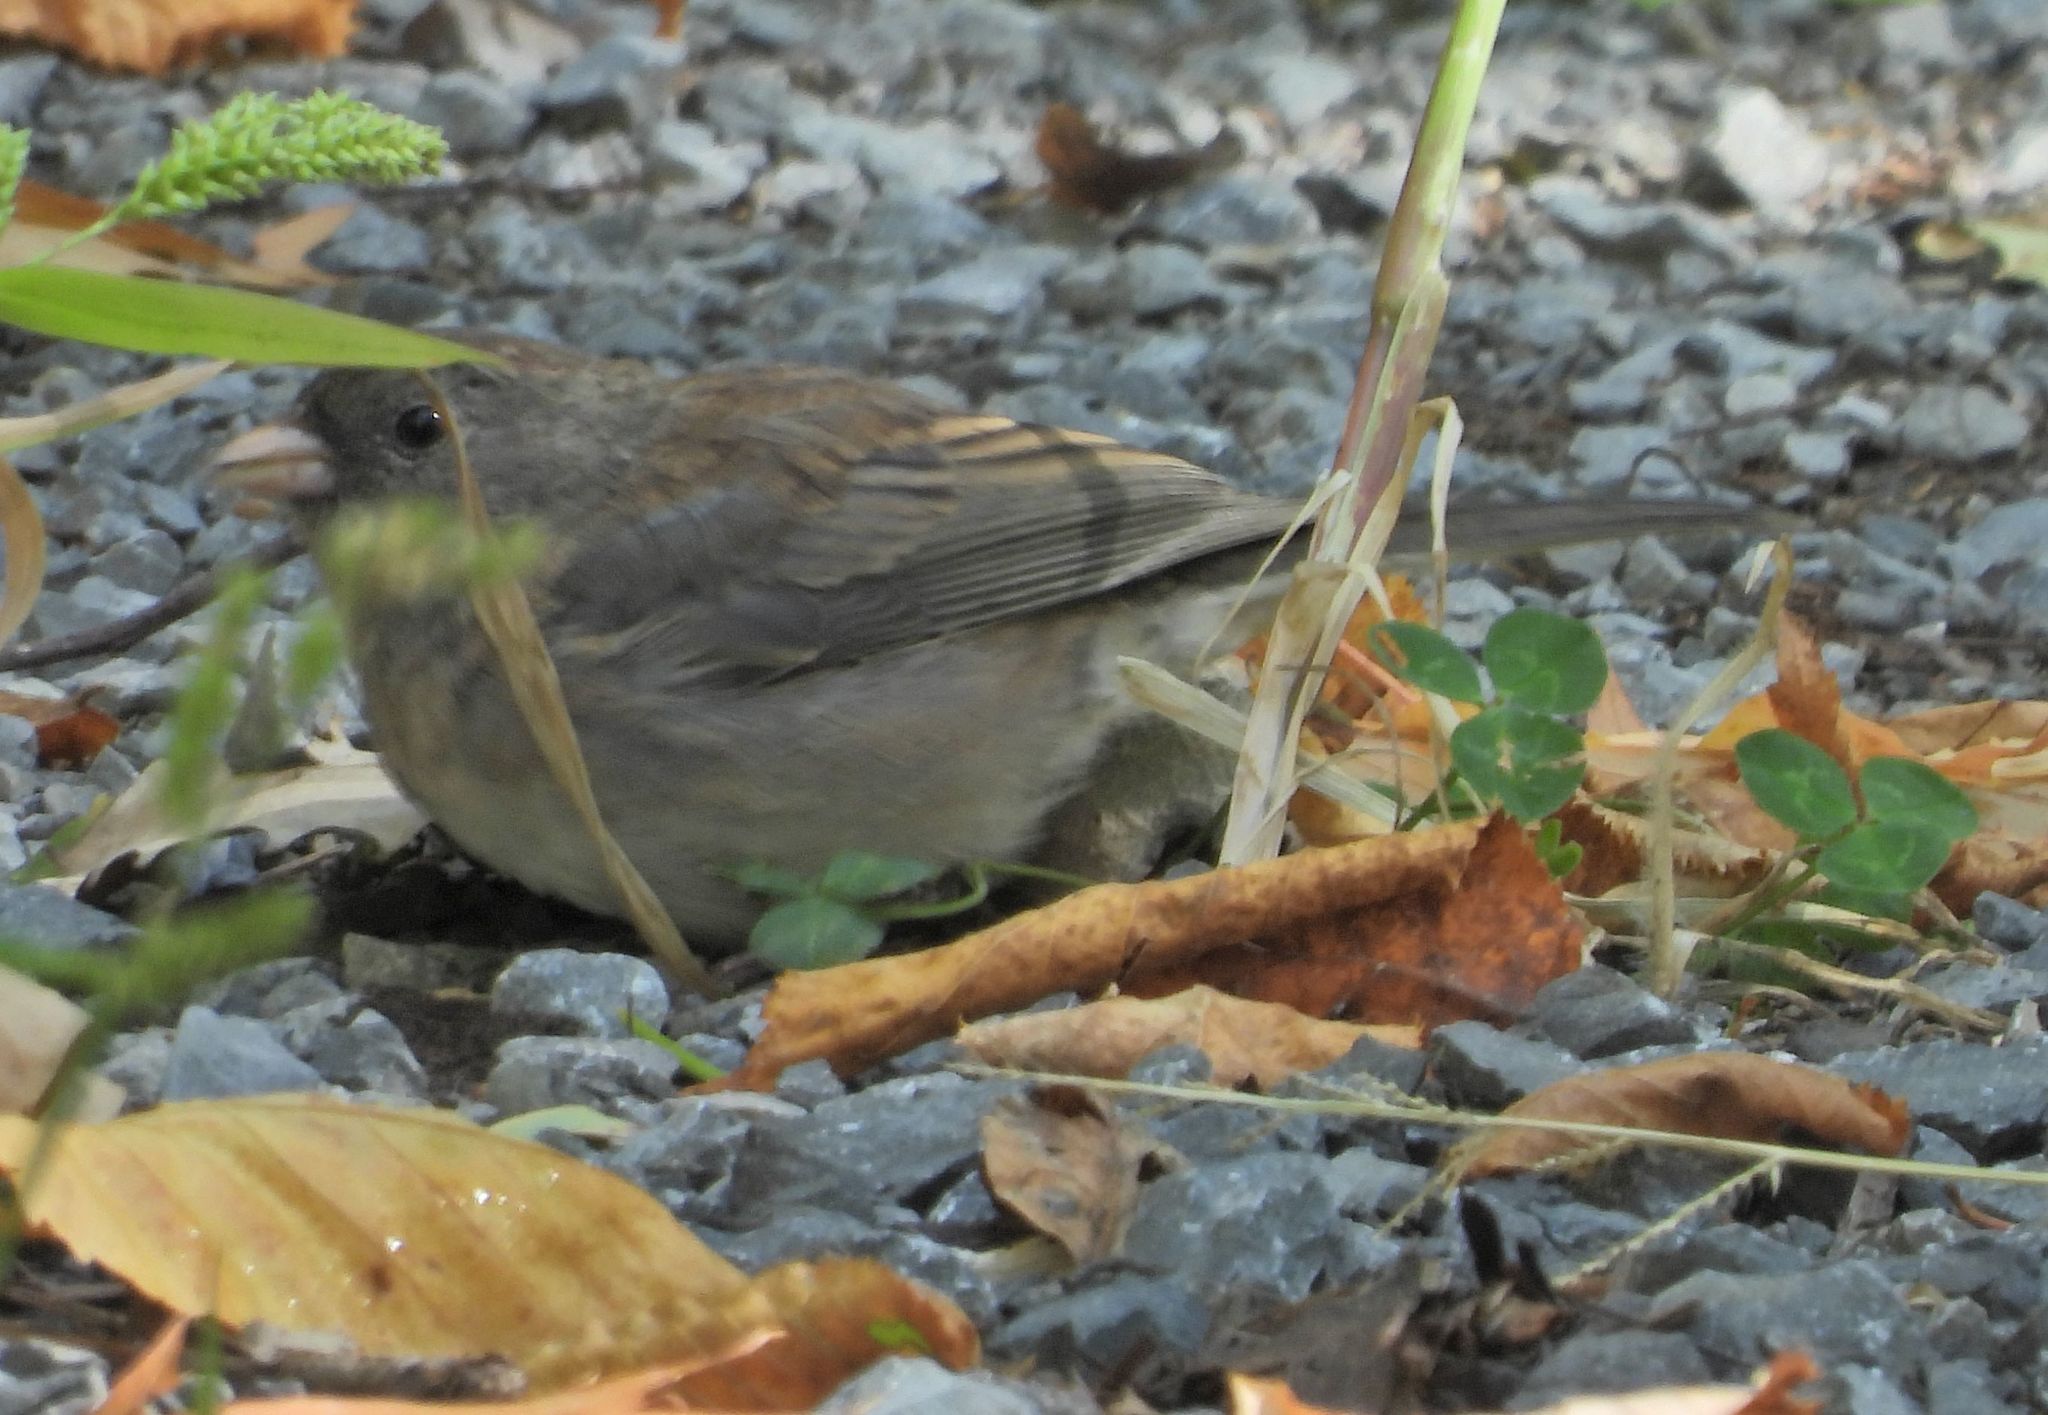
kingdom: Animalia
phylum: Chordata
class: Aves
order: Passeriformes
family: Passerellidae
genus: Junco
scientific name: Junco hyemalis
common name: Dark-eyed junco
